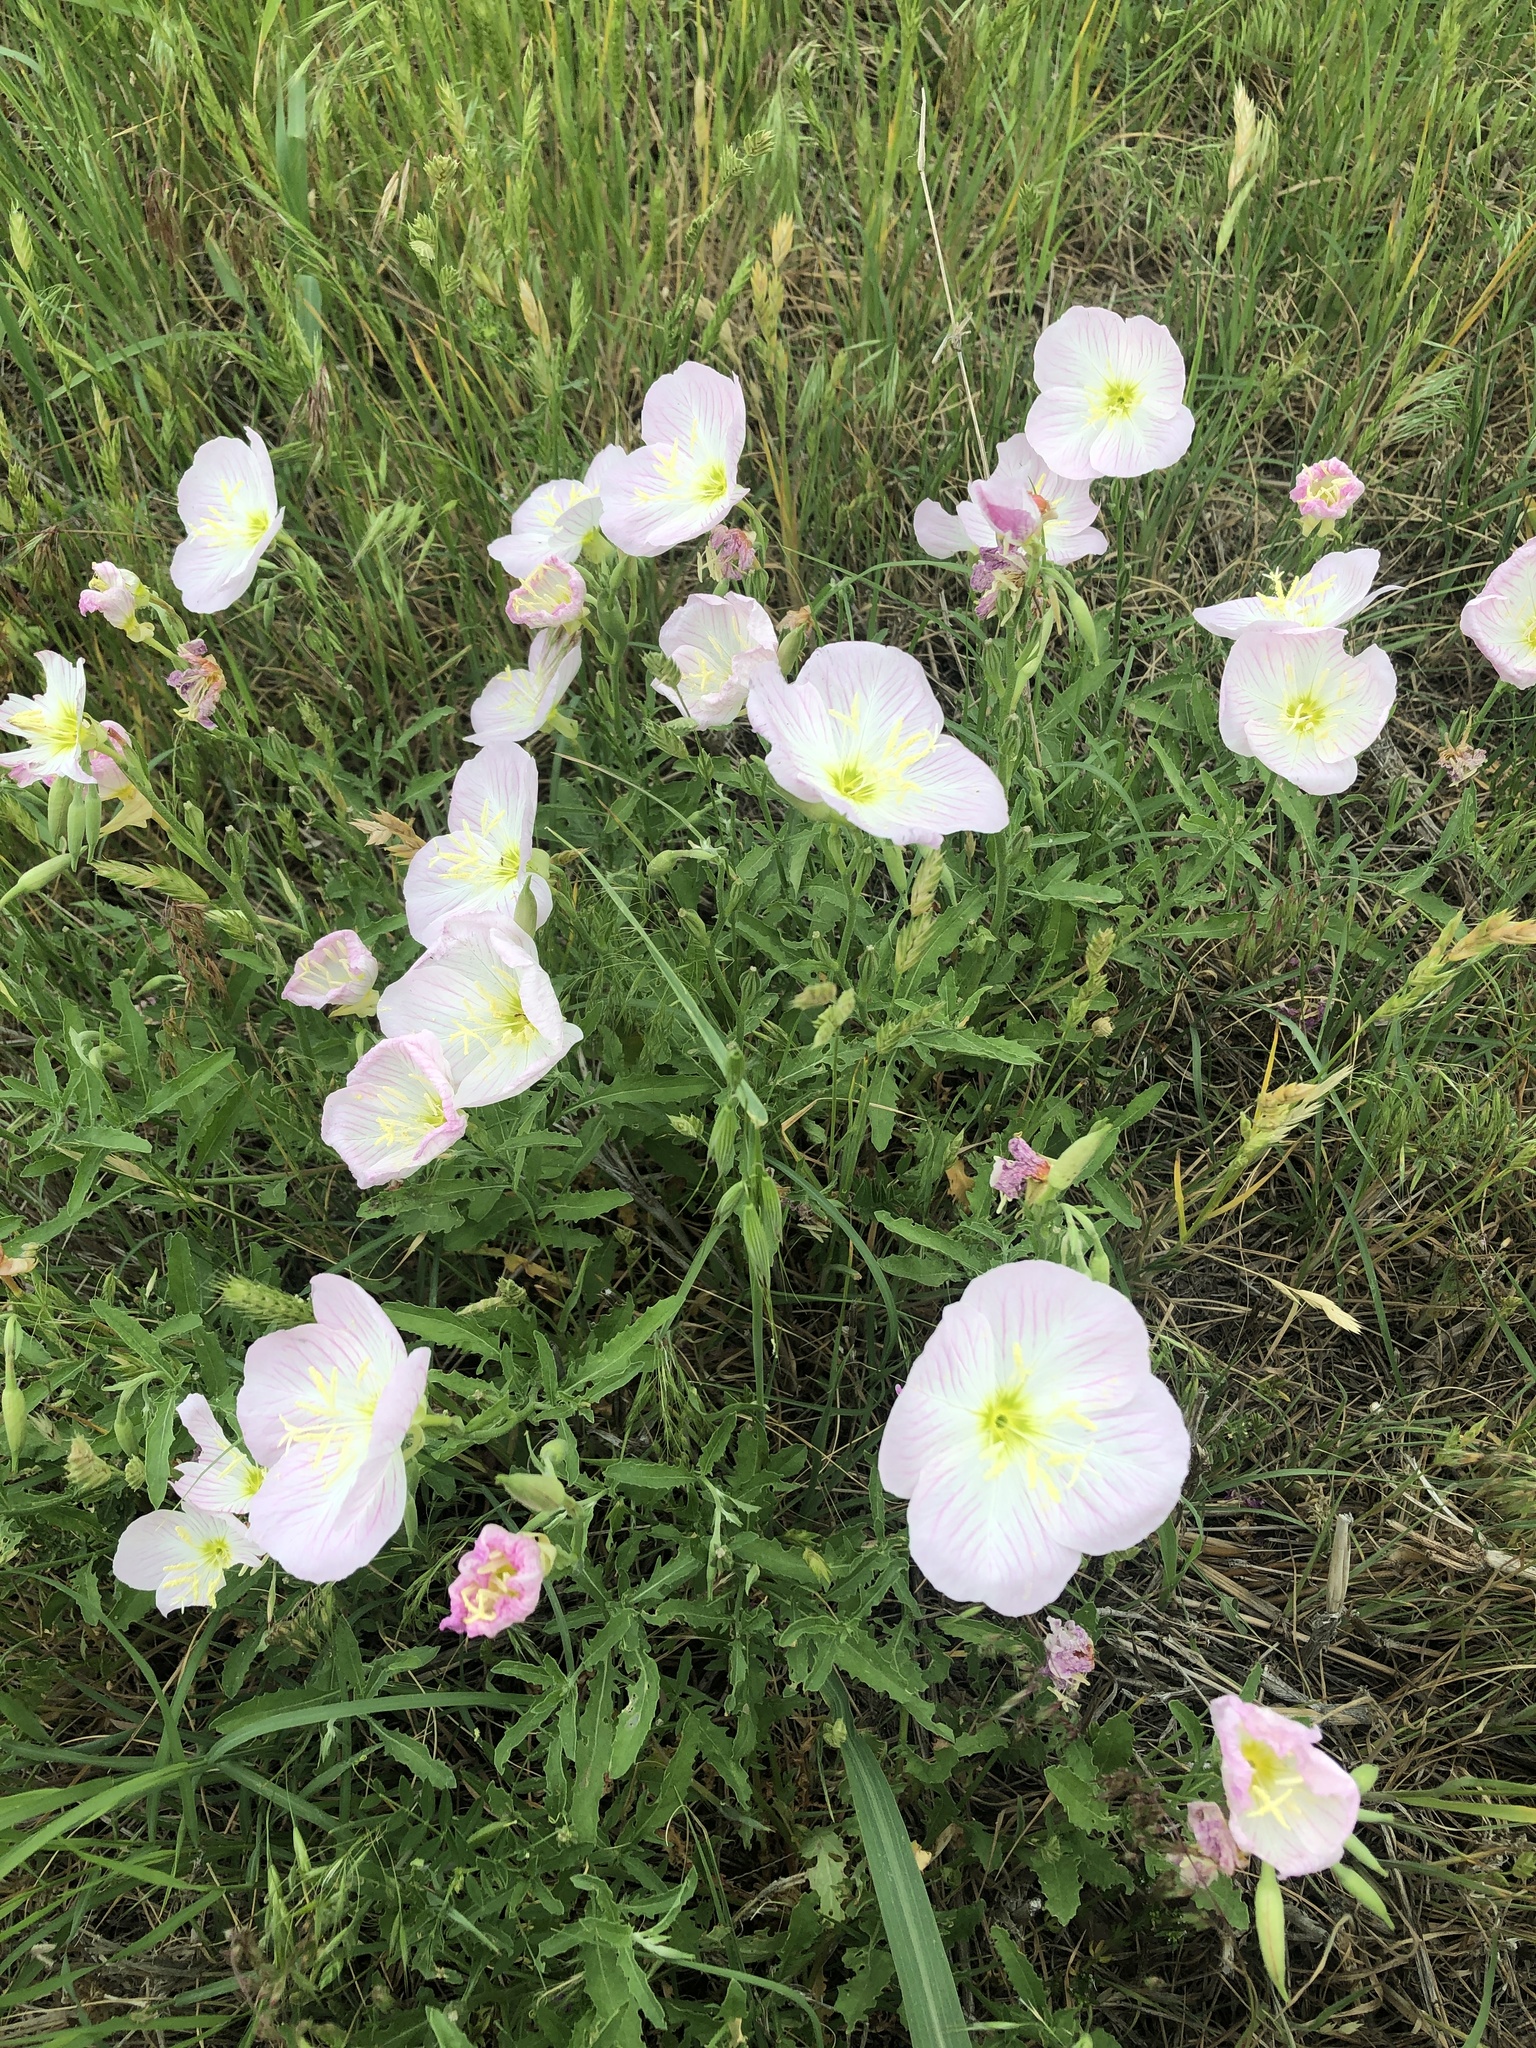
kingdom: Plantae
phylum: Tracheophyta
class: Magnoliopsida
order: Myrtales
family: Onagraceae
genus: Oenothera
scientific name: Oenothera speciosa
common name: White evening-primrose
